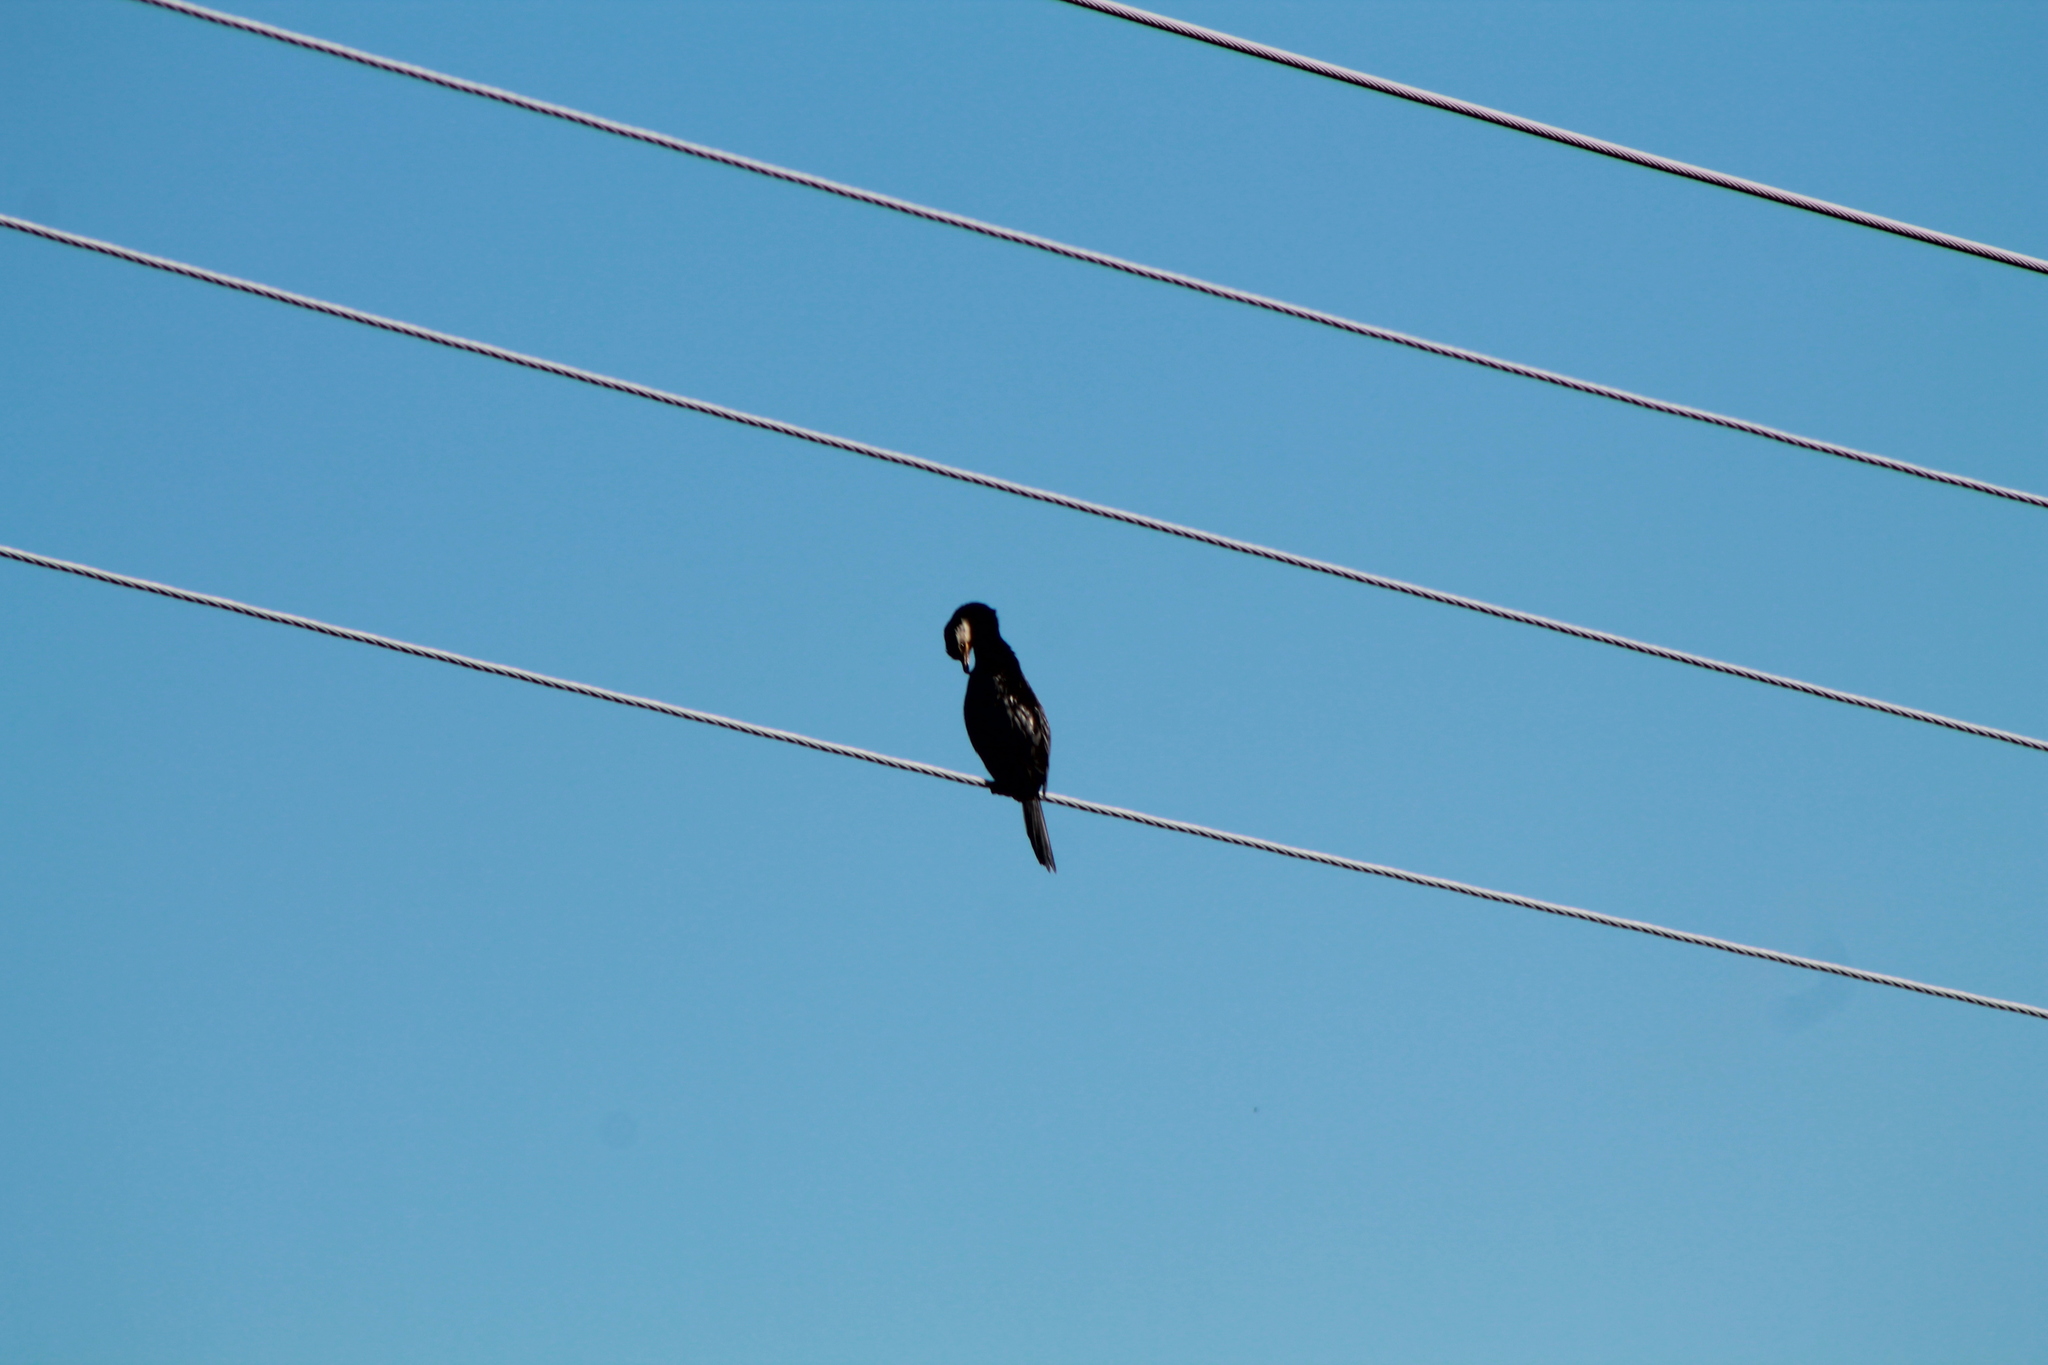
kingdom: Animalia
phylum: Chordata
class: Aves
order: Suliformes
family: Phalacrocoracidae
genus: Microcarbo
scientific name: Microcarbo melanoleucos
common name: Little pied cormorant
